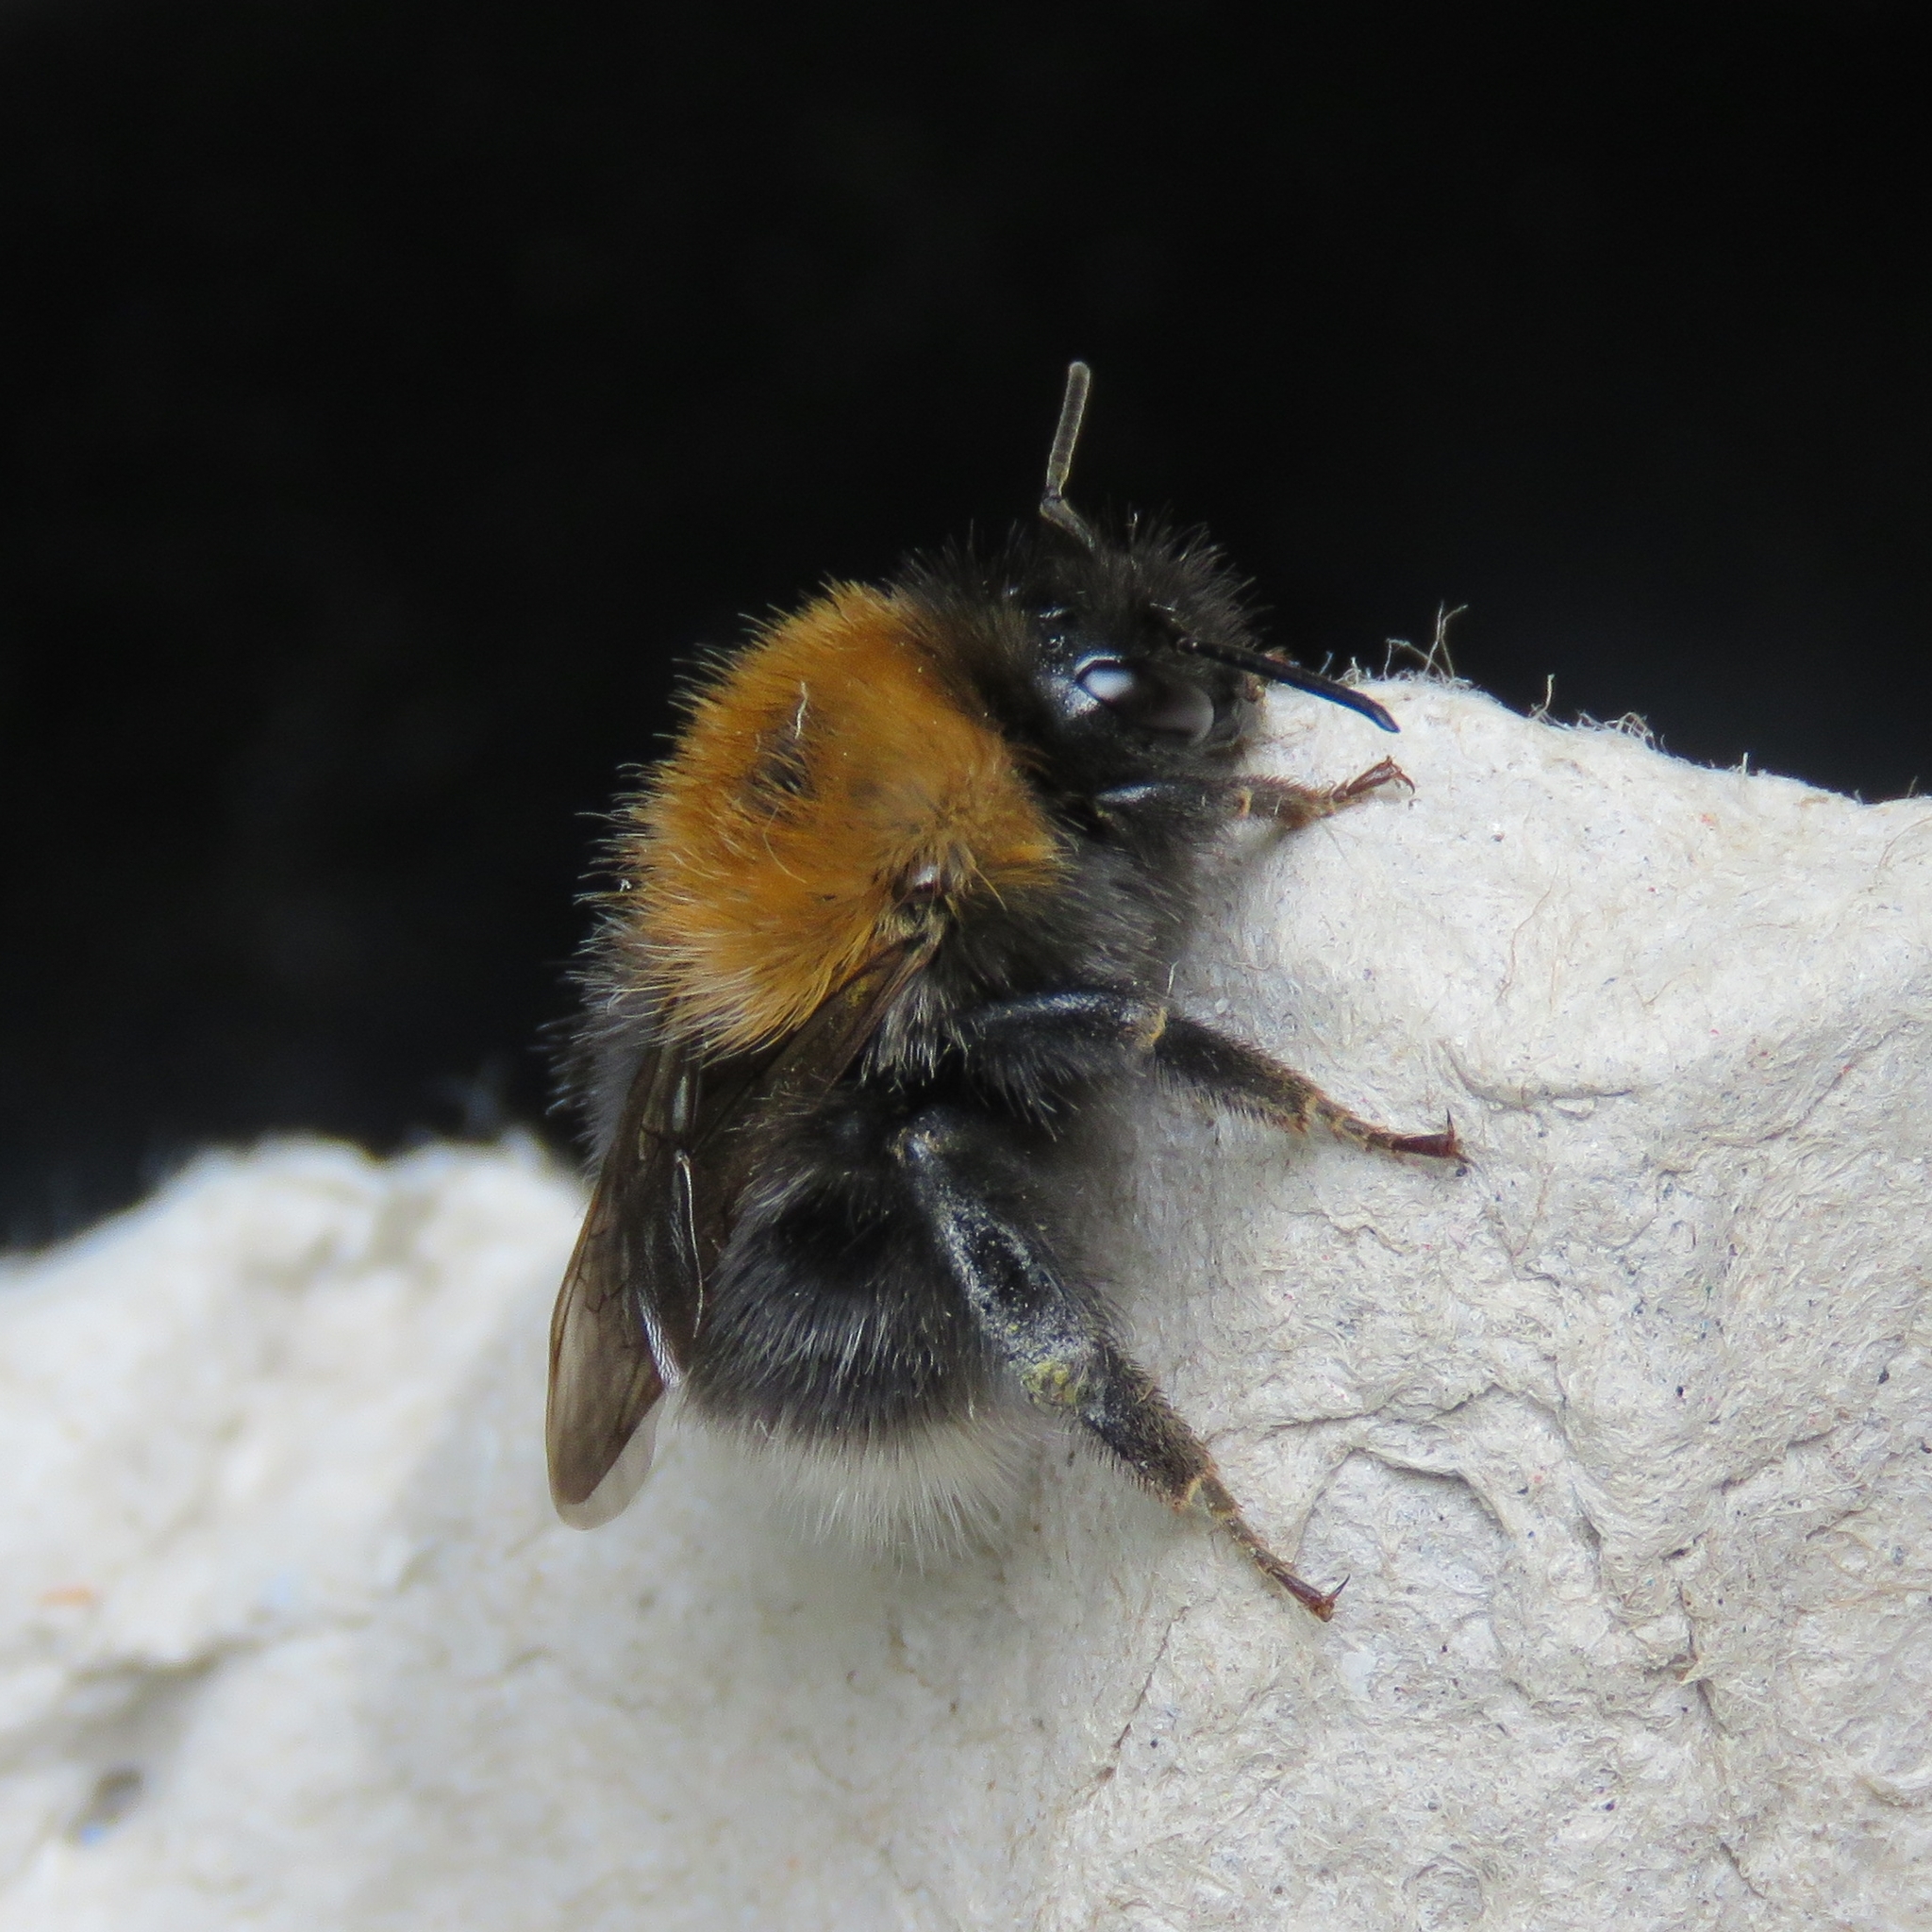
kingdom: Animalia
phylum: Arthropoda
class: Insecta
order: Hymenoptera
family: Apidae
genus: Bombus
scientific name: Bombus hypnorum
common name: New garden bumblebee
